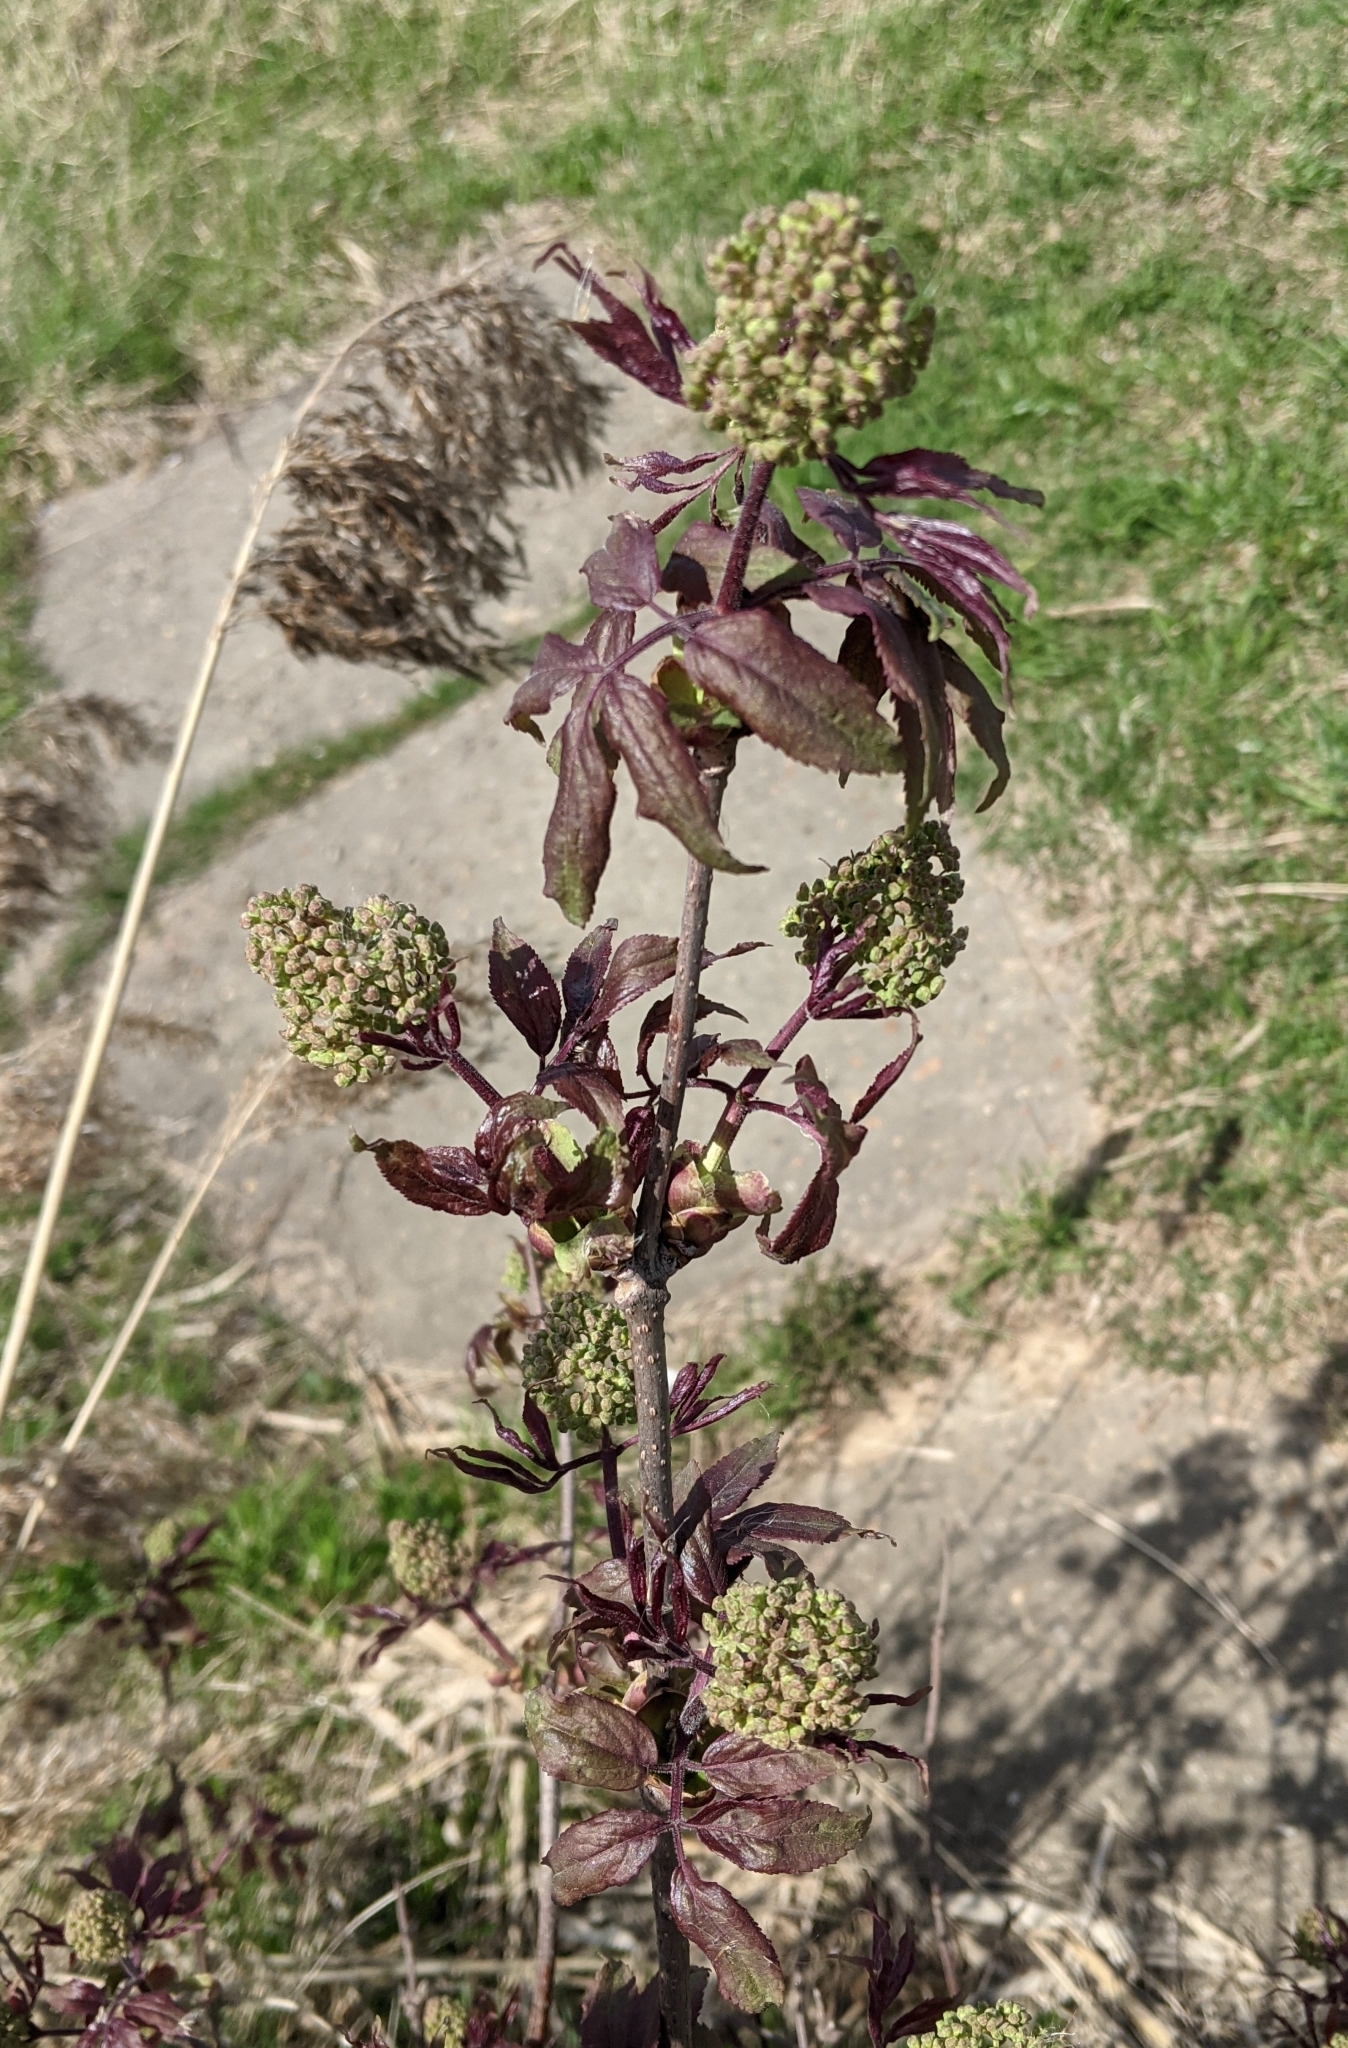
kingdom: Plantae
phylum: Tracheophyta
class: Magnoliopsida
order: Dipsacales
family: Viburnaceae
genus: Sambucus
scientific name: Sambucus racemosa
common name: Red-berried elder
